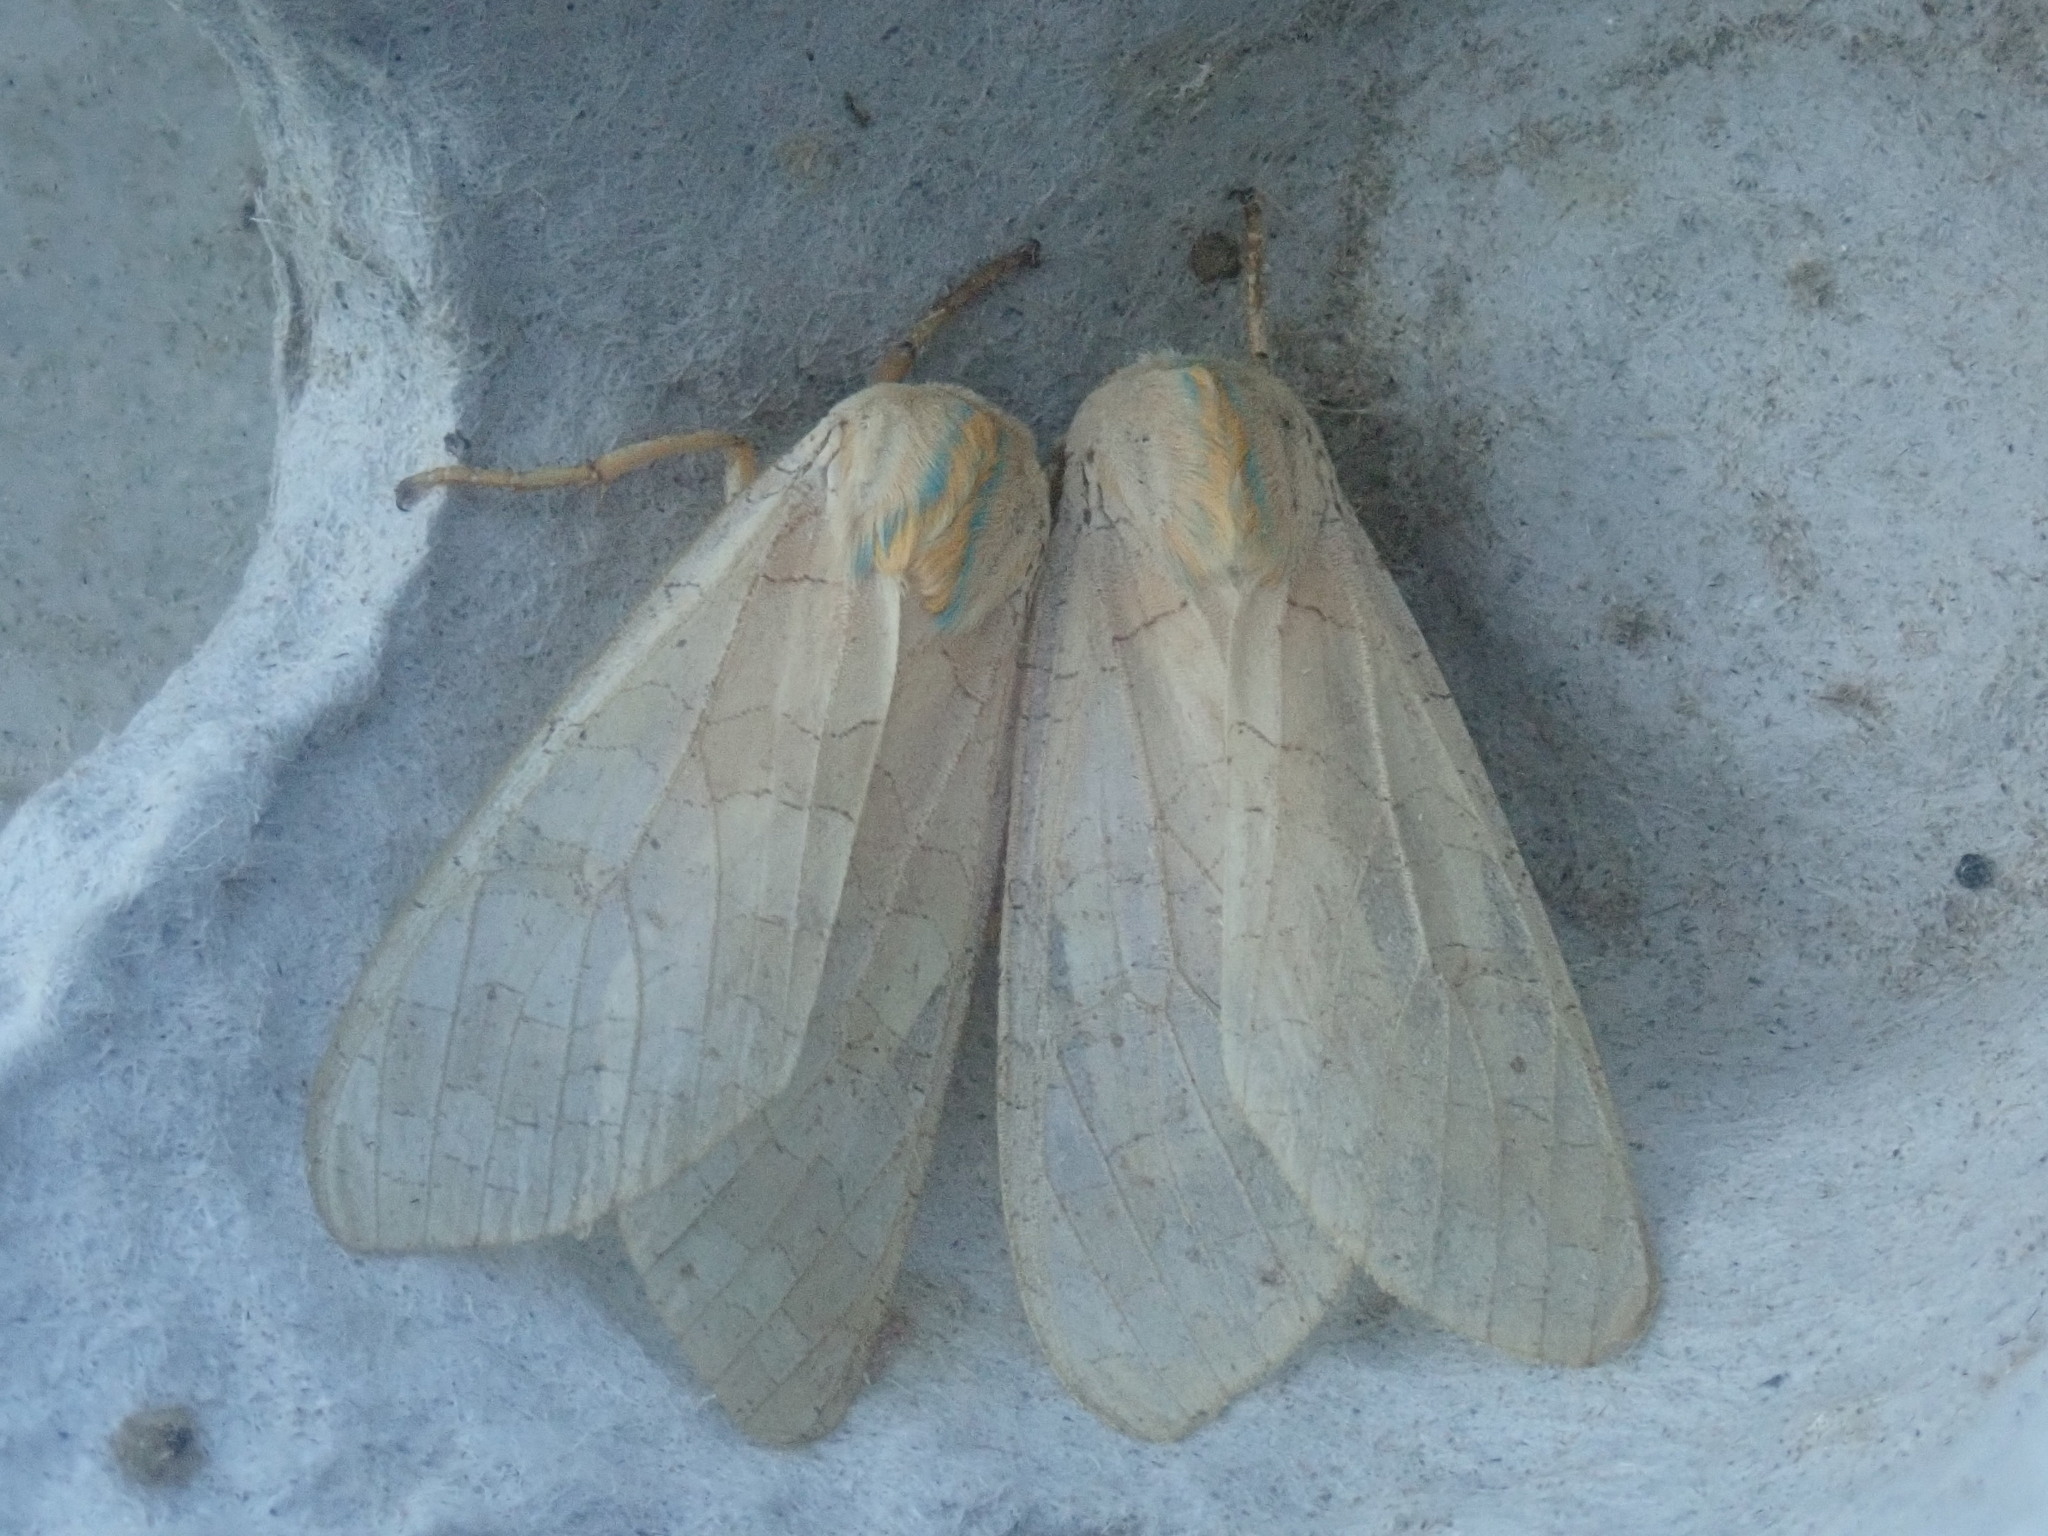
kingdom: Animalia
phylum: Arthropoda
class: Insecta
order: Lepidoptera
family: Erebidae
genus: Halysidota
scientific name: Halysidota
